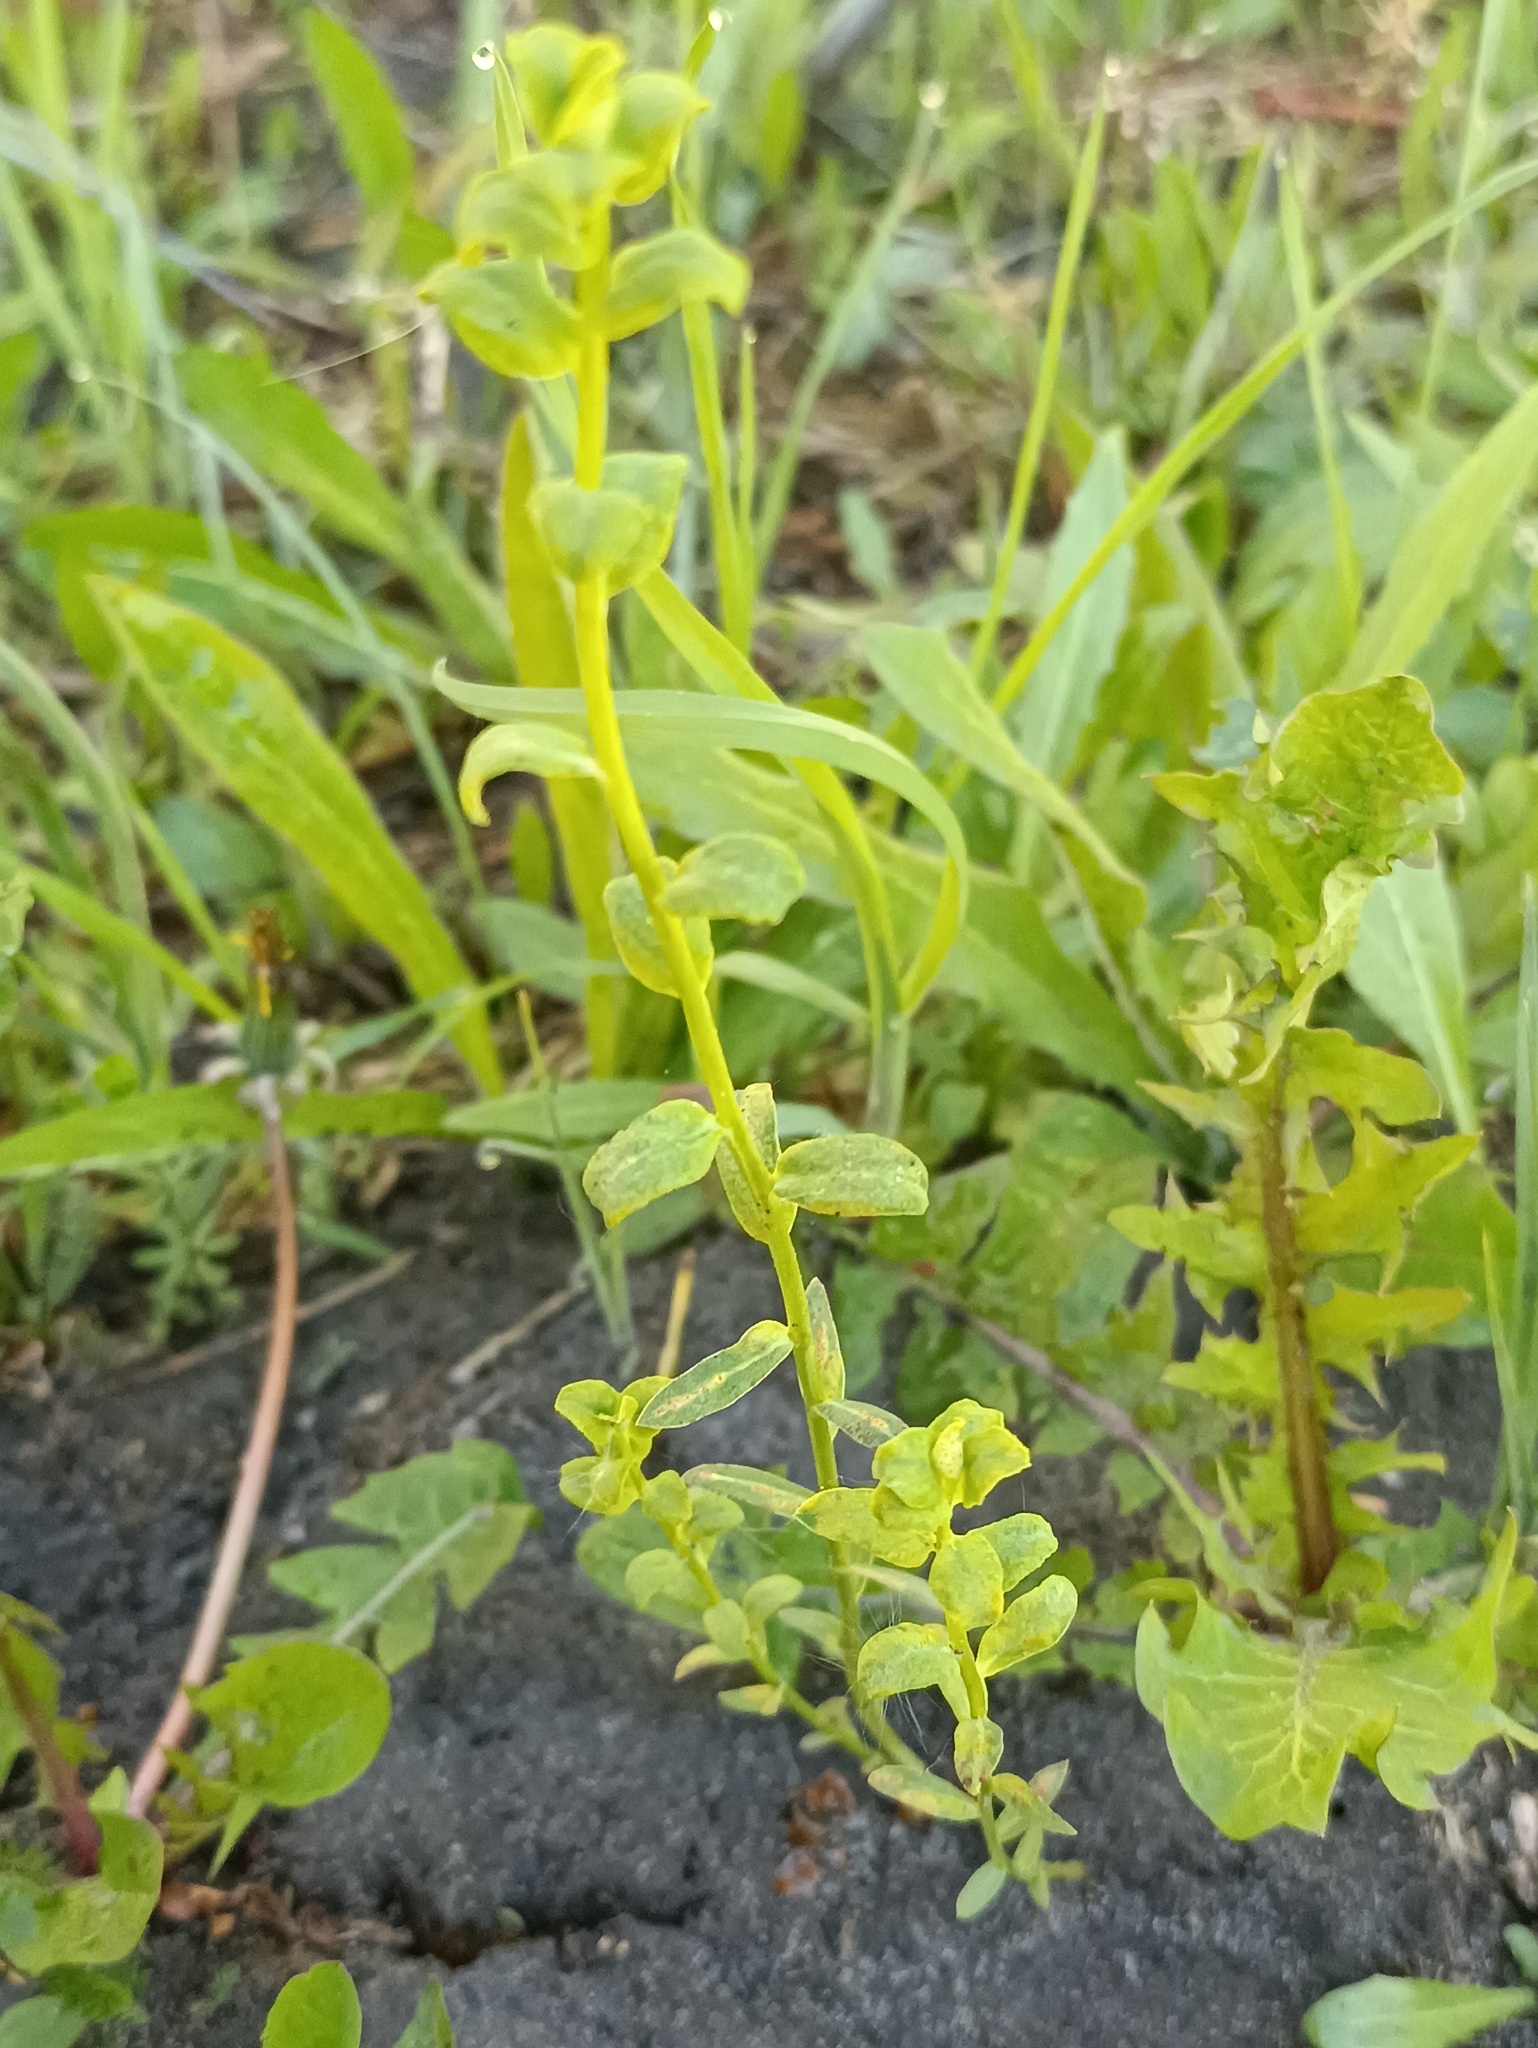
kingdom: Plantae
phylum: Tracheophyta
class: Magnoliopsida
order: Malpighiales
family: Euphorbiaceae
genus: Euphorbia
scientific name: Euphorbia virgata
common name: Leafy spurge
